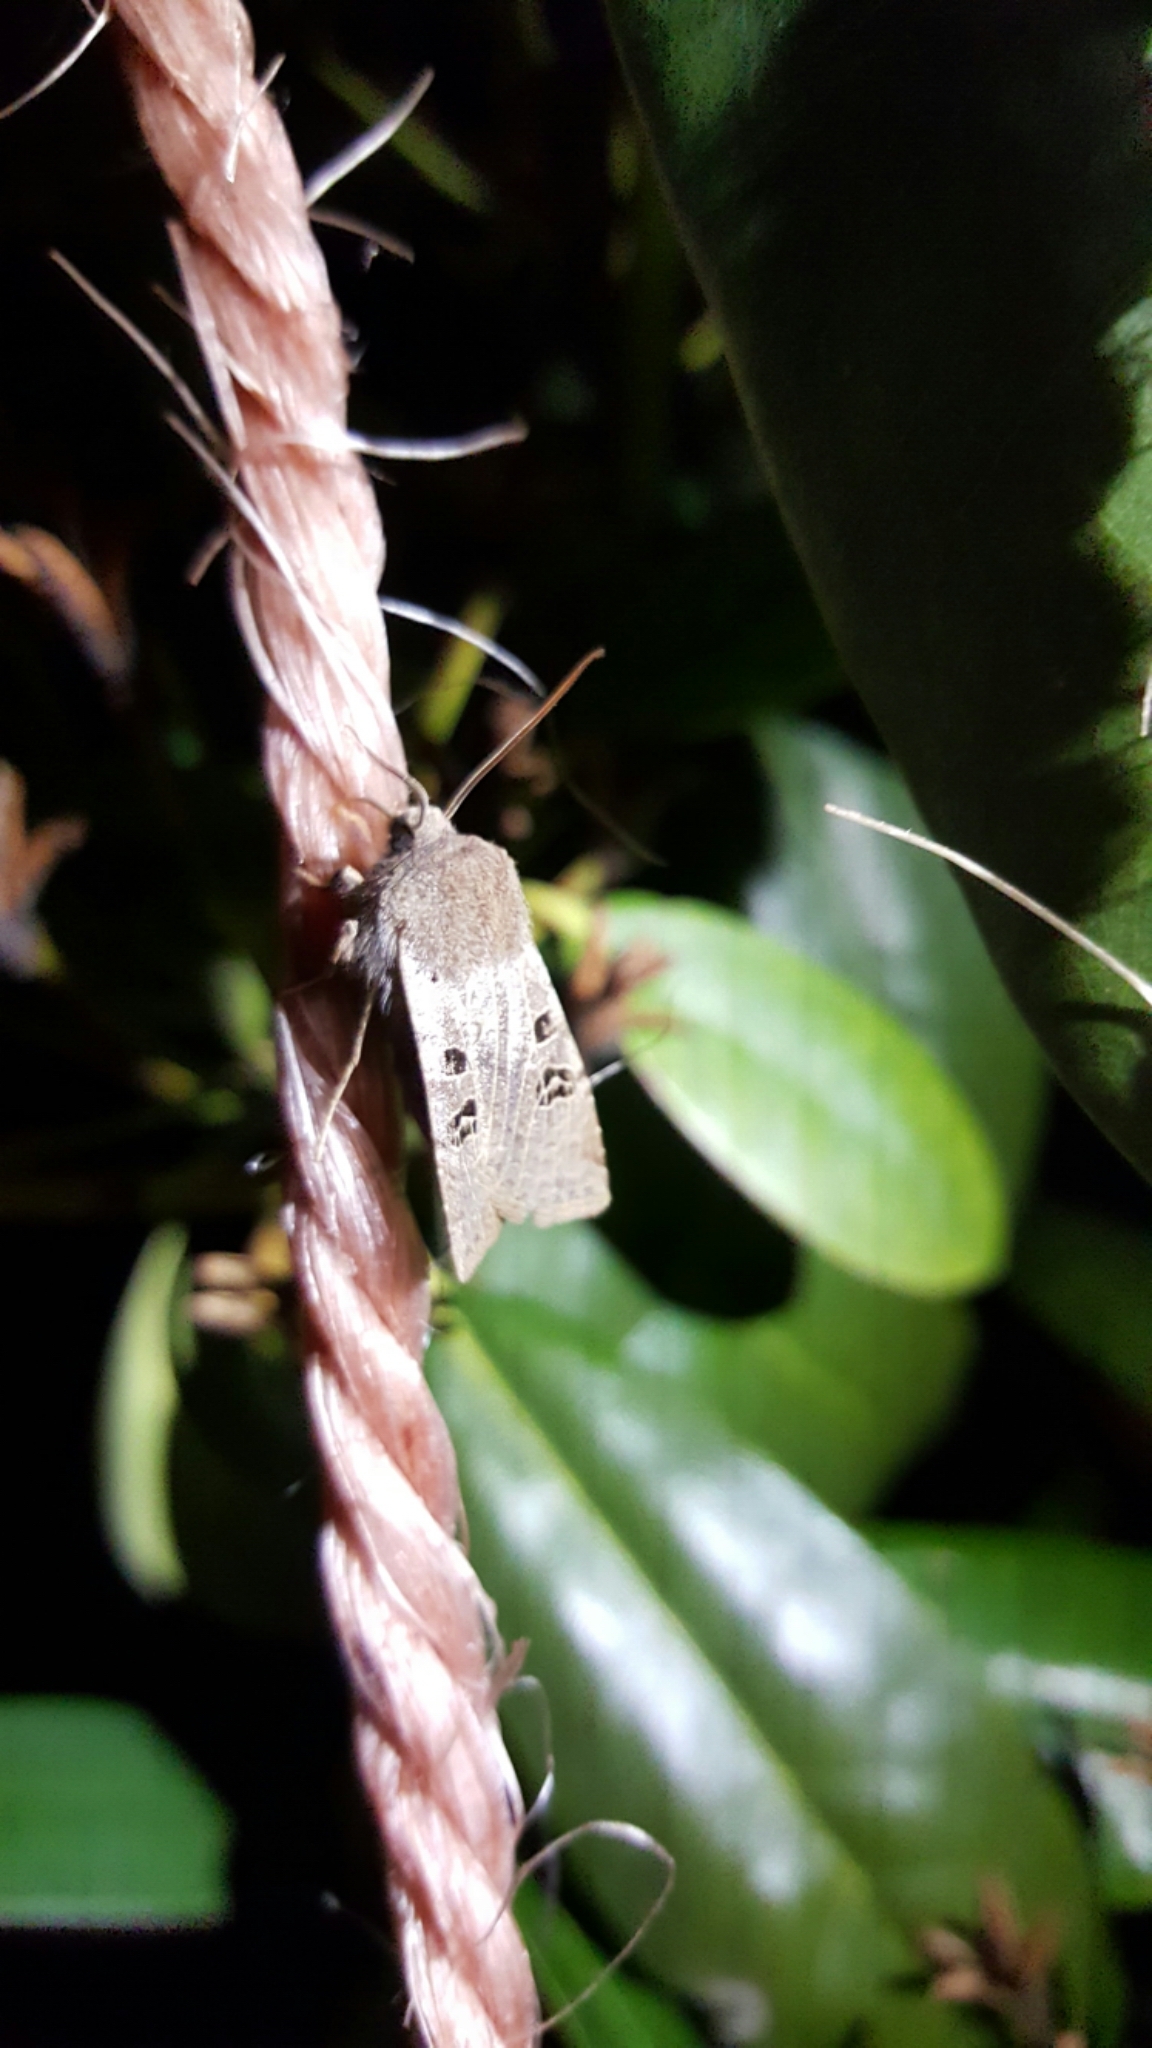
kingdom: Animalia
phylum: Arthropoda
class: Insecta
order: Lepidoptera
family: Noctuidae
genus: Conistra
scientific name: Conistra rubiginosa
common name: Black-spotted chestnut
